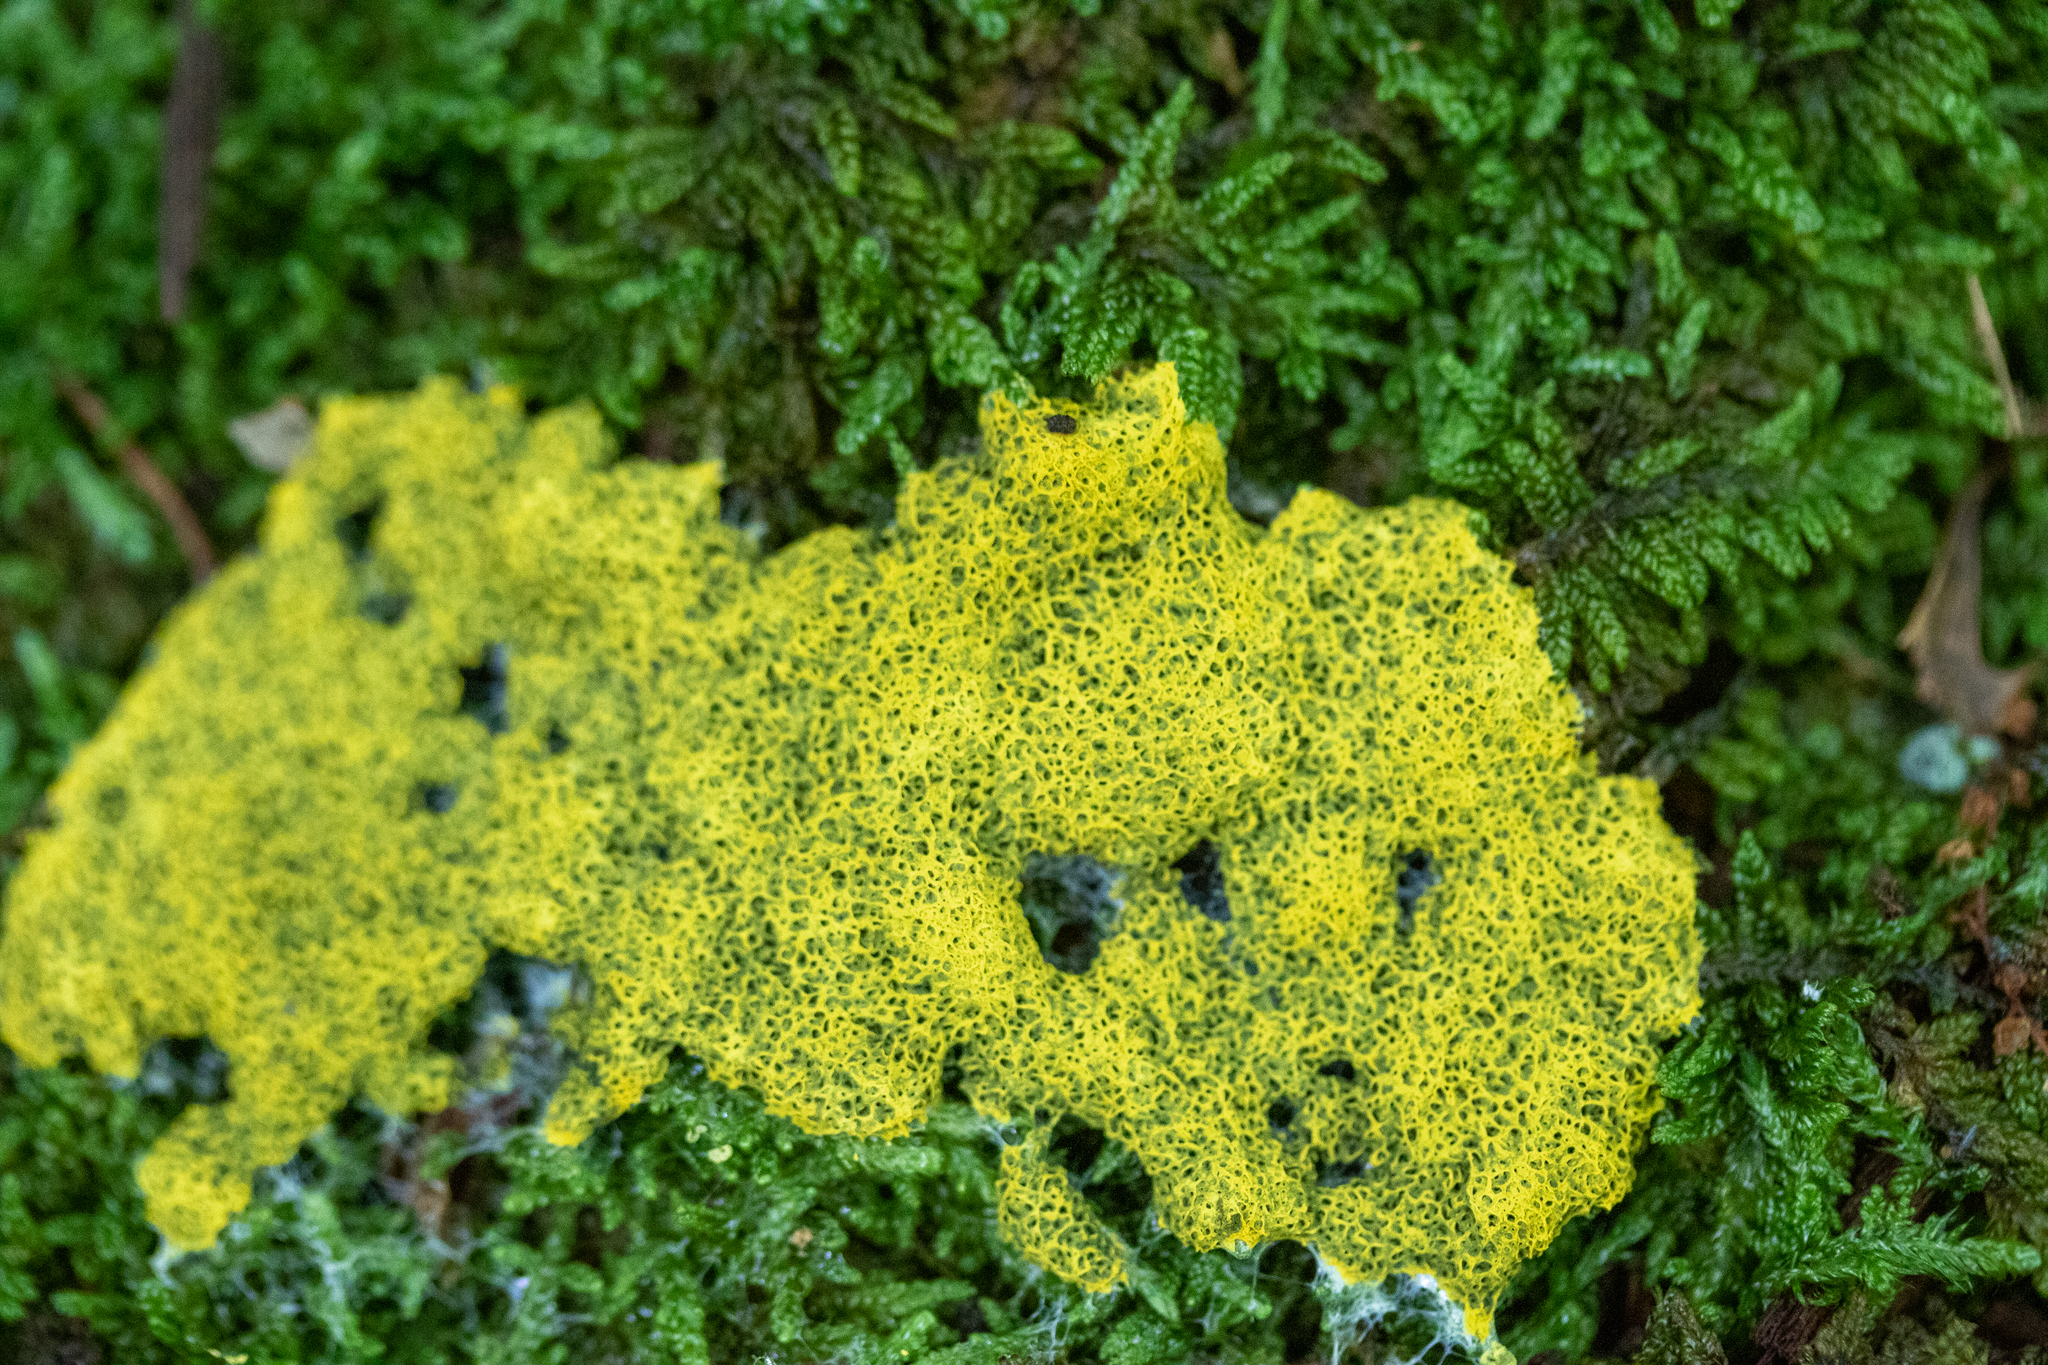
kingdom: Protozoa
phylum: Mycetozoa
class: Myxomycetes
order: Physarales
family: Physaraceae
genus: Fuligo
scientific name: Fuligo septica
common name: Dog vomit slime mold
